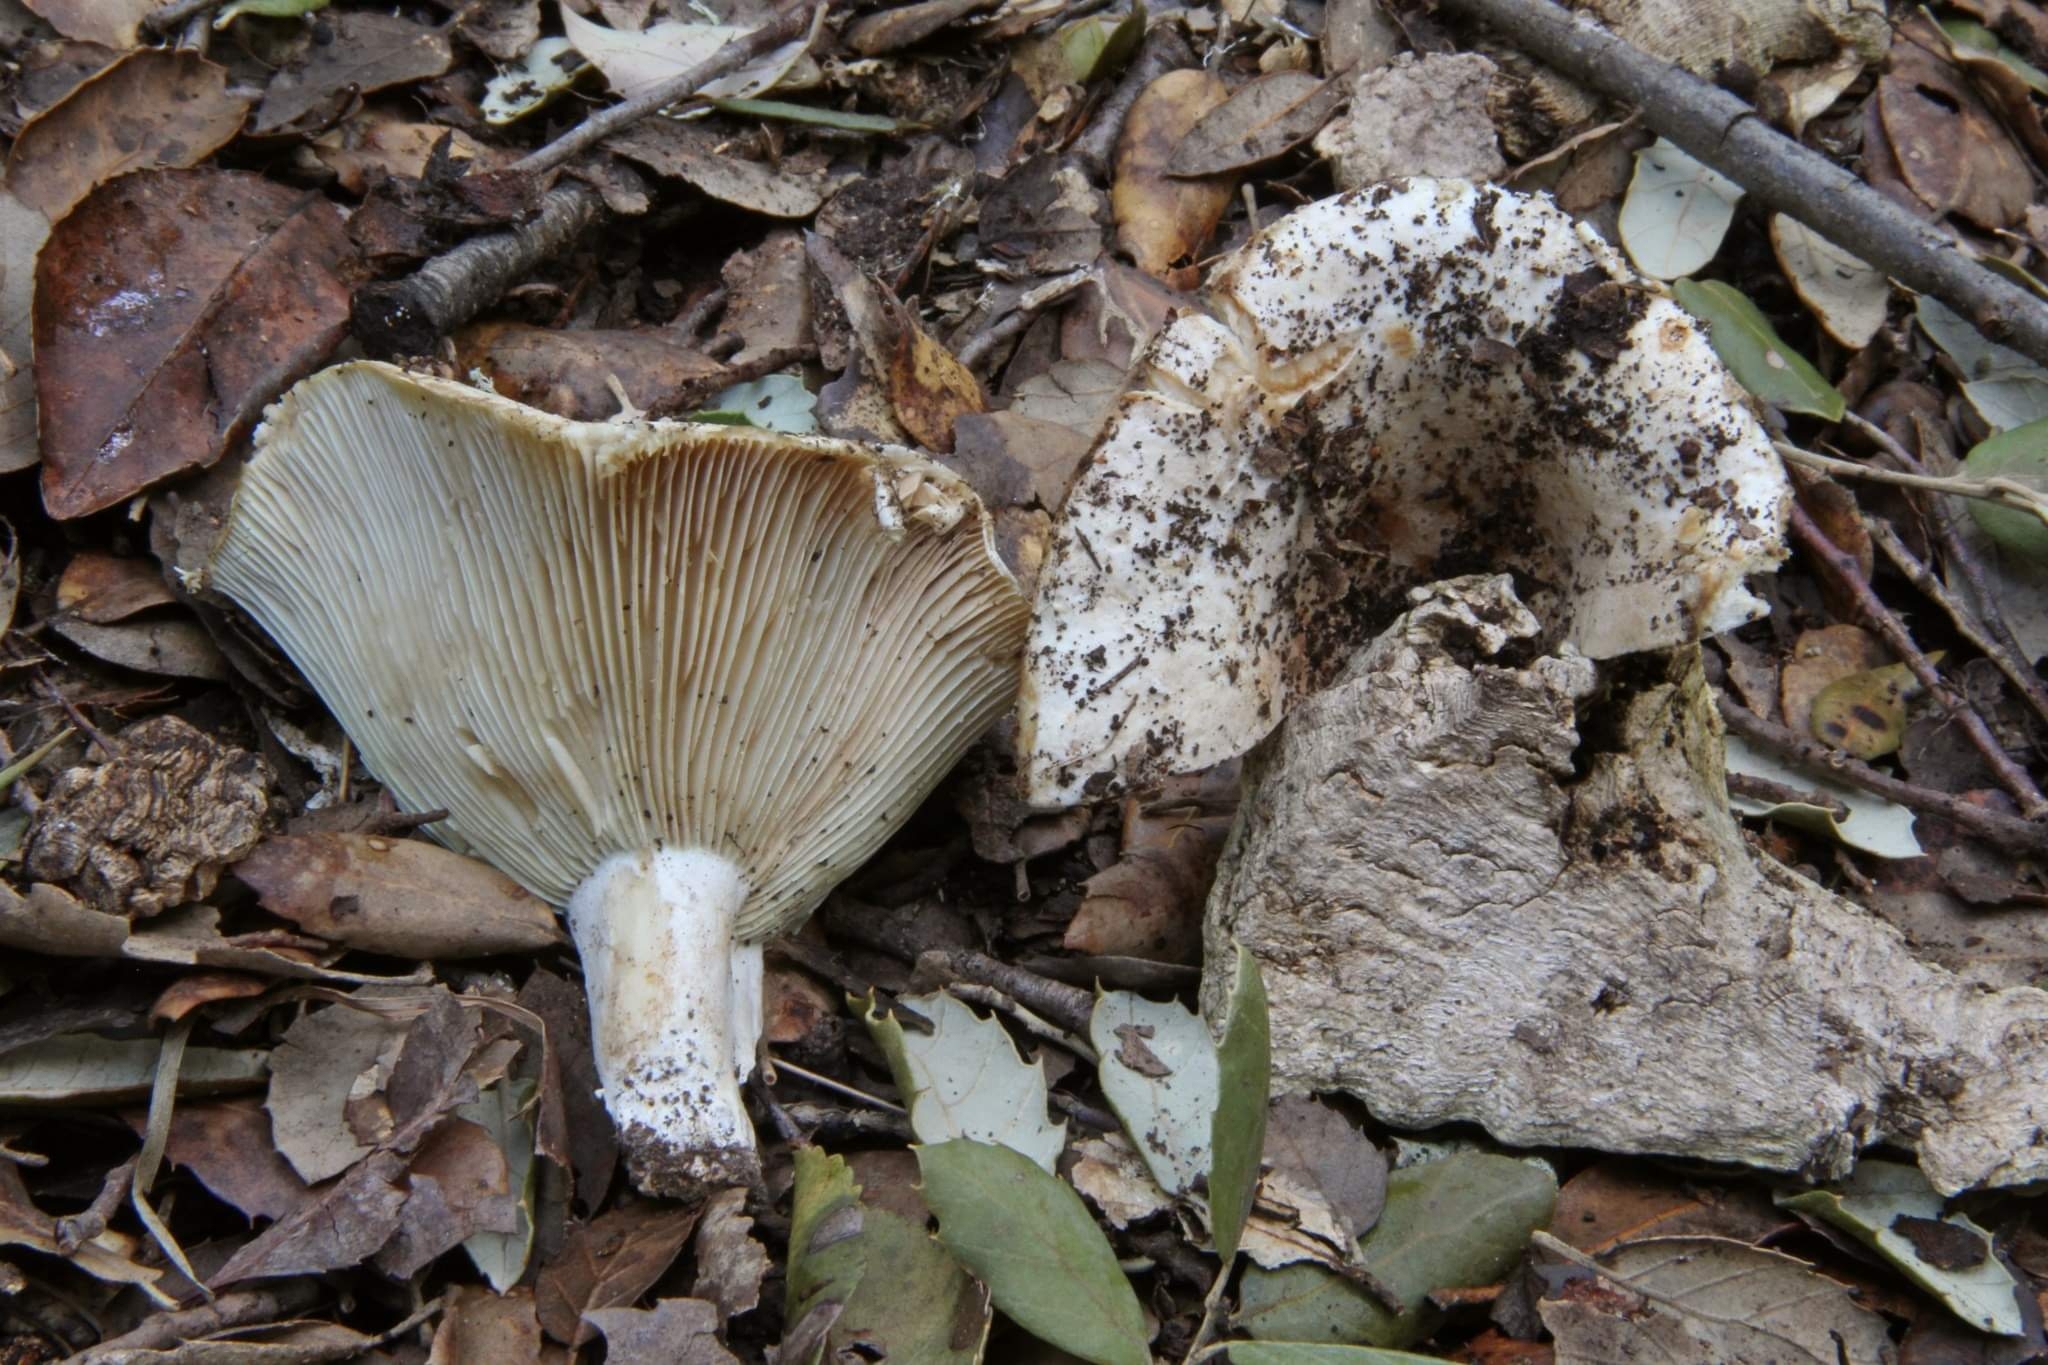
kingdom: Fungi
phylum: Basidiomycota
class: Agaricomycetes
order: Russulales
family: Russulaceae
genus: Russula
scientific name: Russula pallidospora
